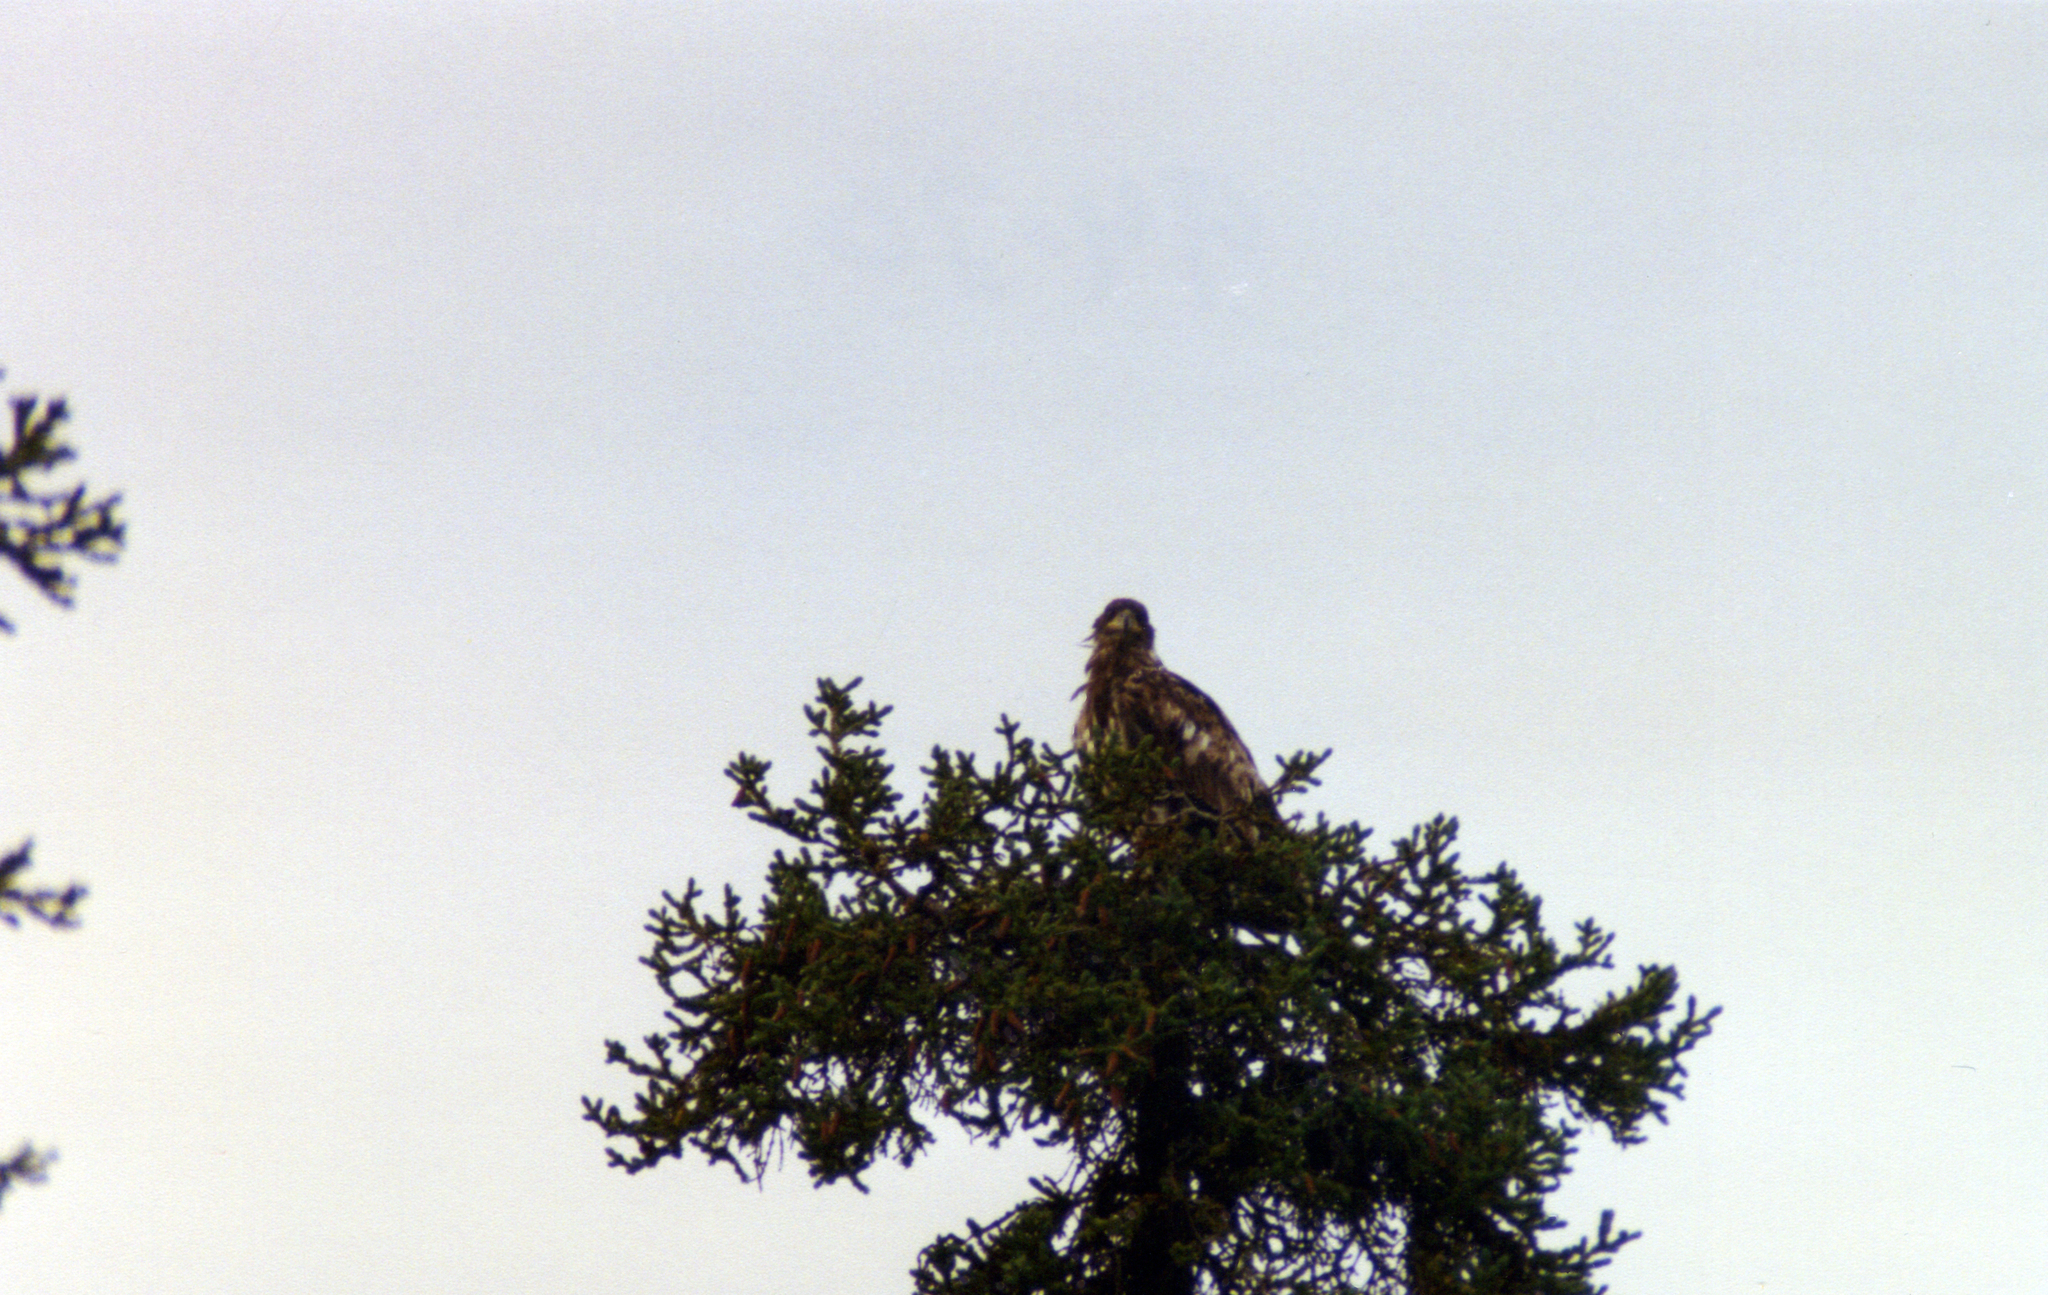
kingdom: Animalia
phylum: Chordata
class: Aves
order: Accipitriformes
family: Accipitridae
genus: Haliaeetus
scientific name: Haliaeetus leucocephalus
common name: Bald eagle
